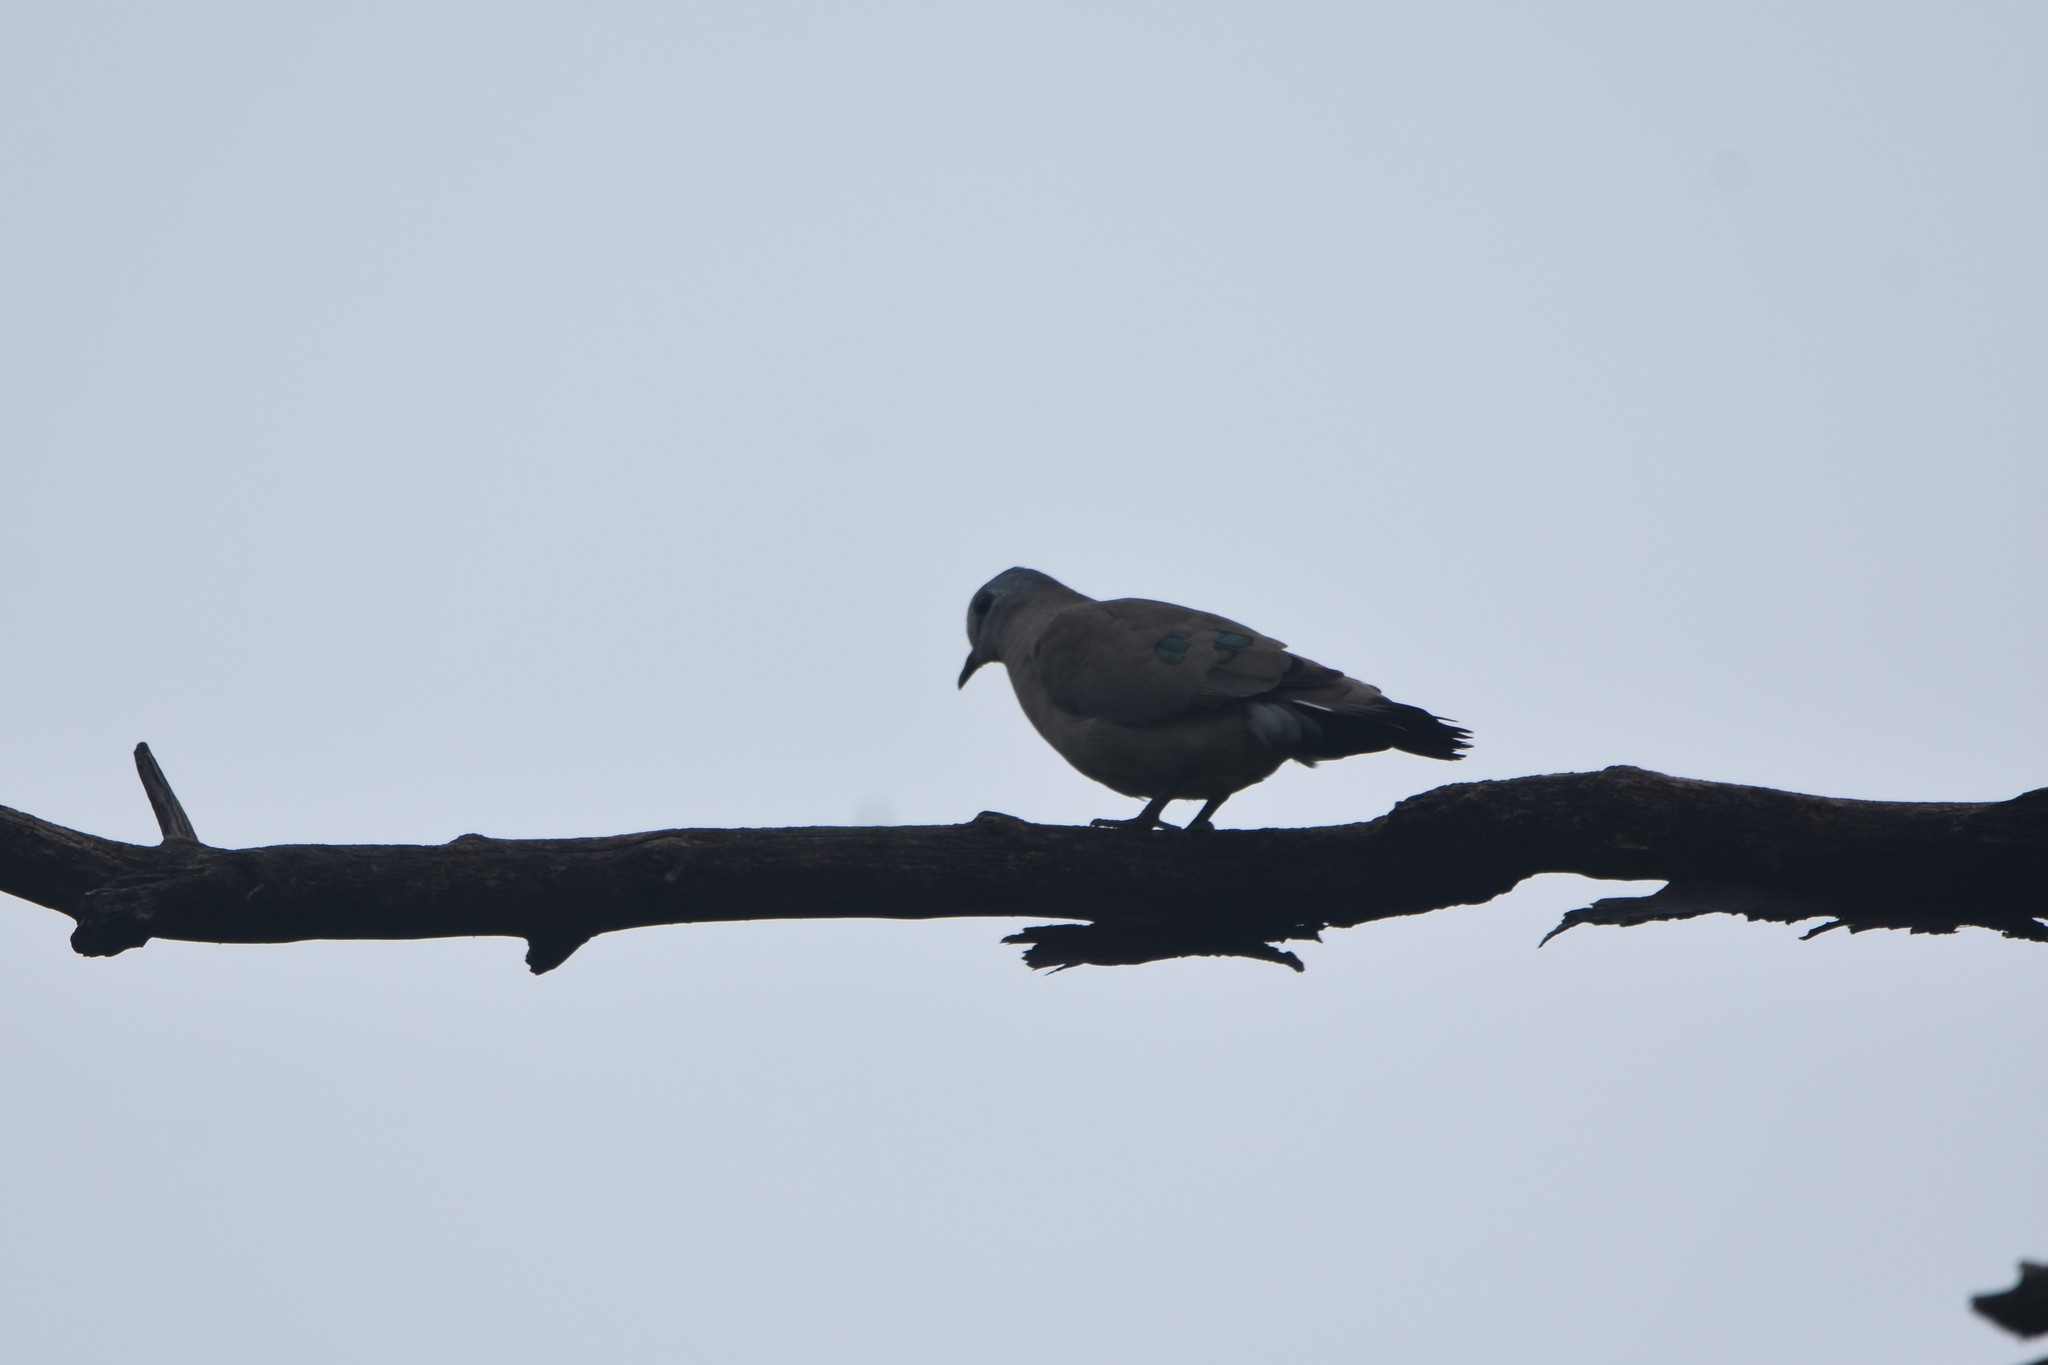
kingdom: Animalia
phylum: Chordata
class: Aves
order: Columbiformes
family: Columbidae
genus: Turtur
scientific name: Turtur chalcospilos
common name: Emerald-spotted wood dove
